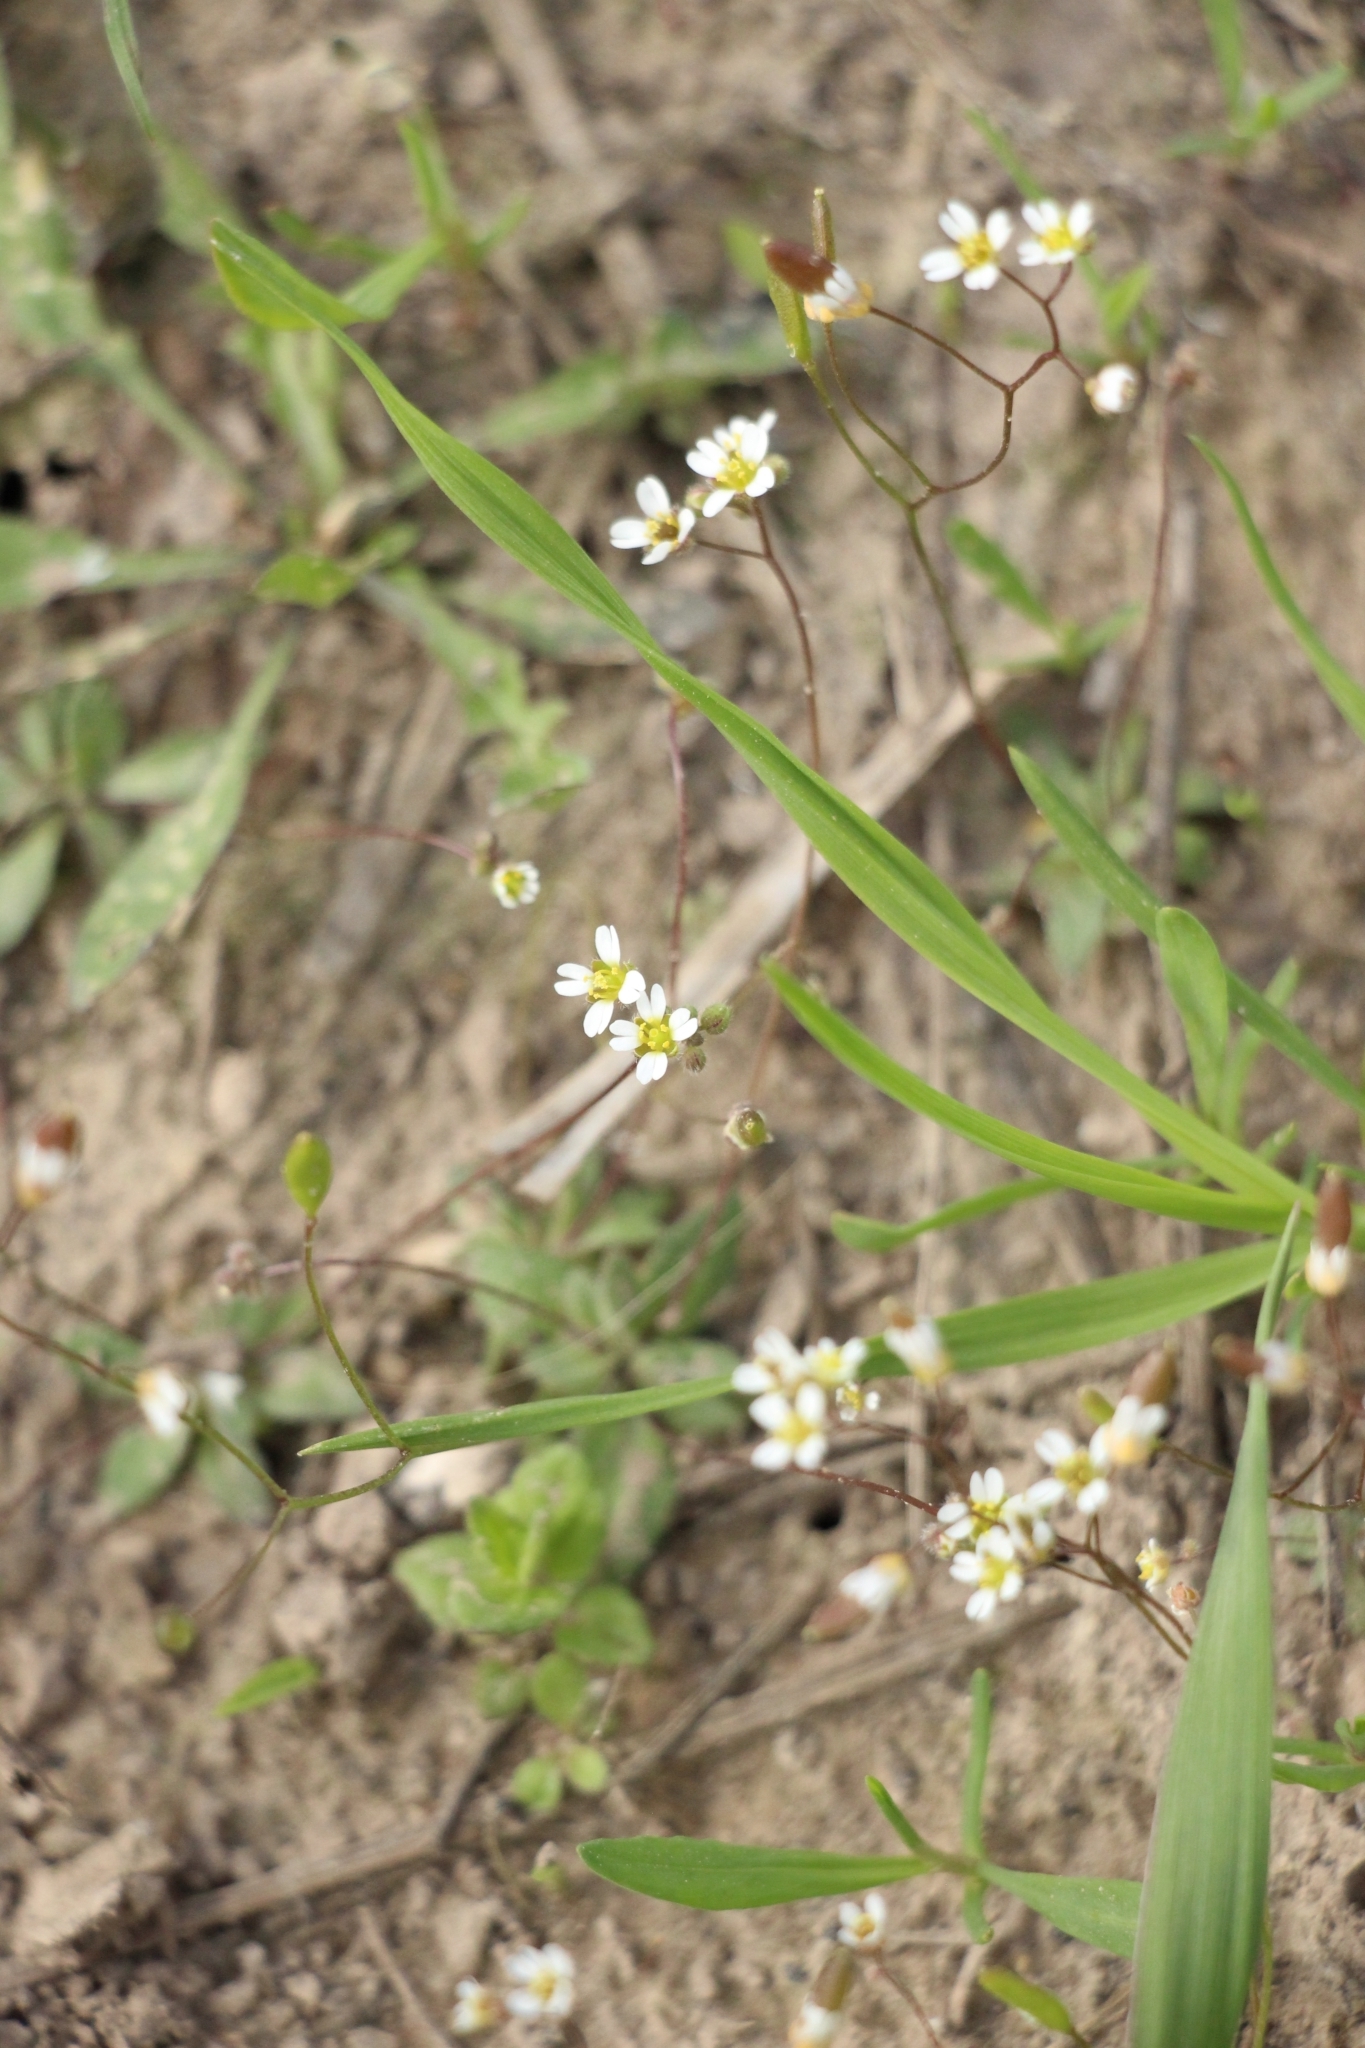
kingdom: Plantae
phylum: Tracheophyta
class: Magnoliopsida
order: Brassicales
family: Brassicaceae
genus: Draba
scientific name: Draba verna
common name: Spring draba
